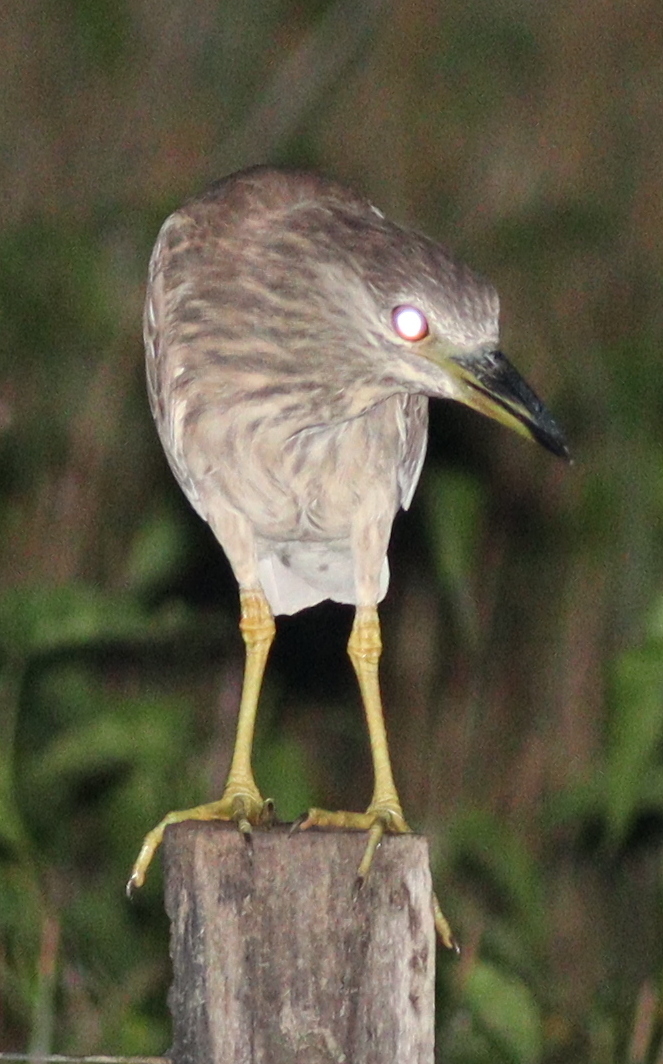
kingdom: Animalia
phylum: Chordata
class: Aves
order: Pelecaniformes
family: Ardeidae
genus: Nycticorax
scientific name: Nycticorax nycticorax
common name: Black-crowned night heron
